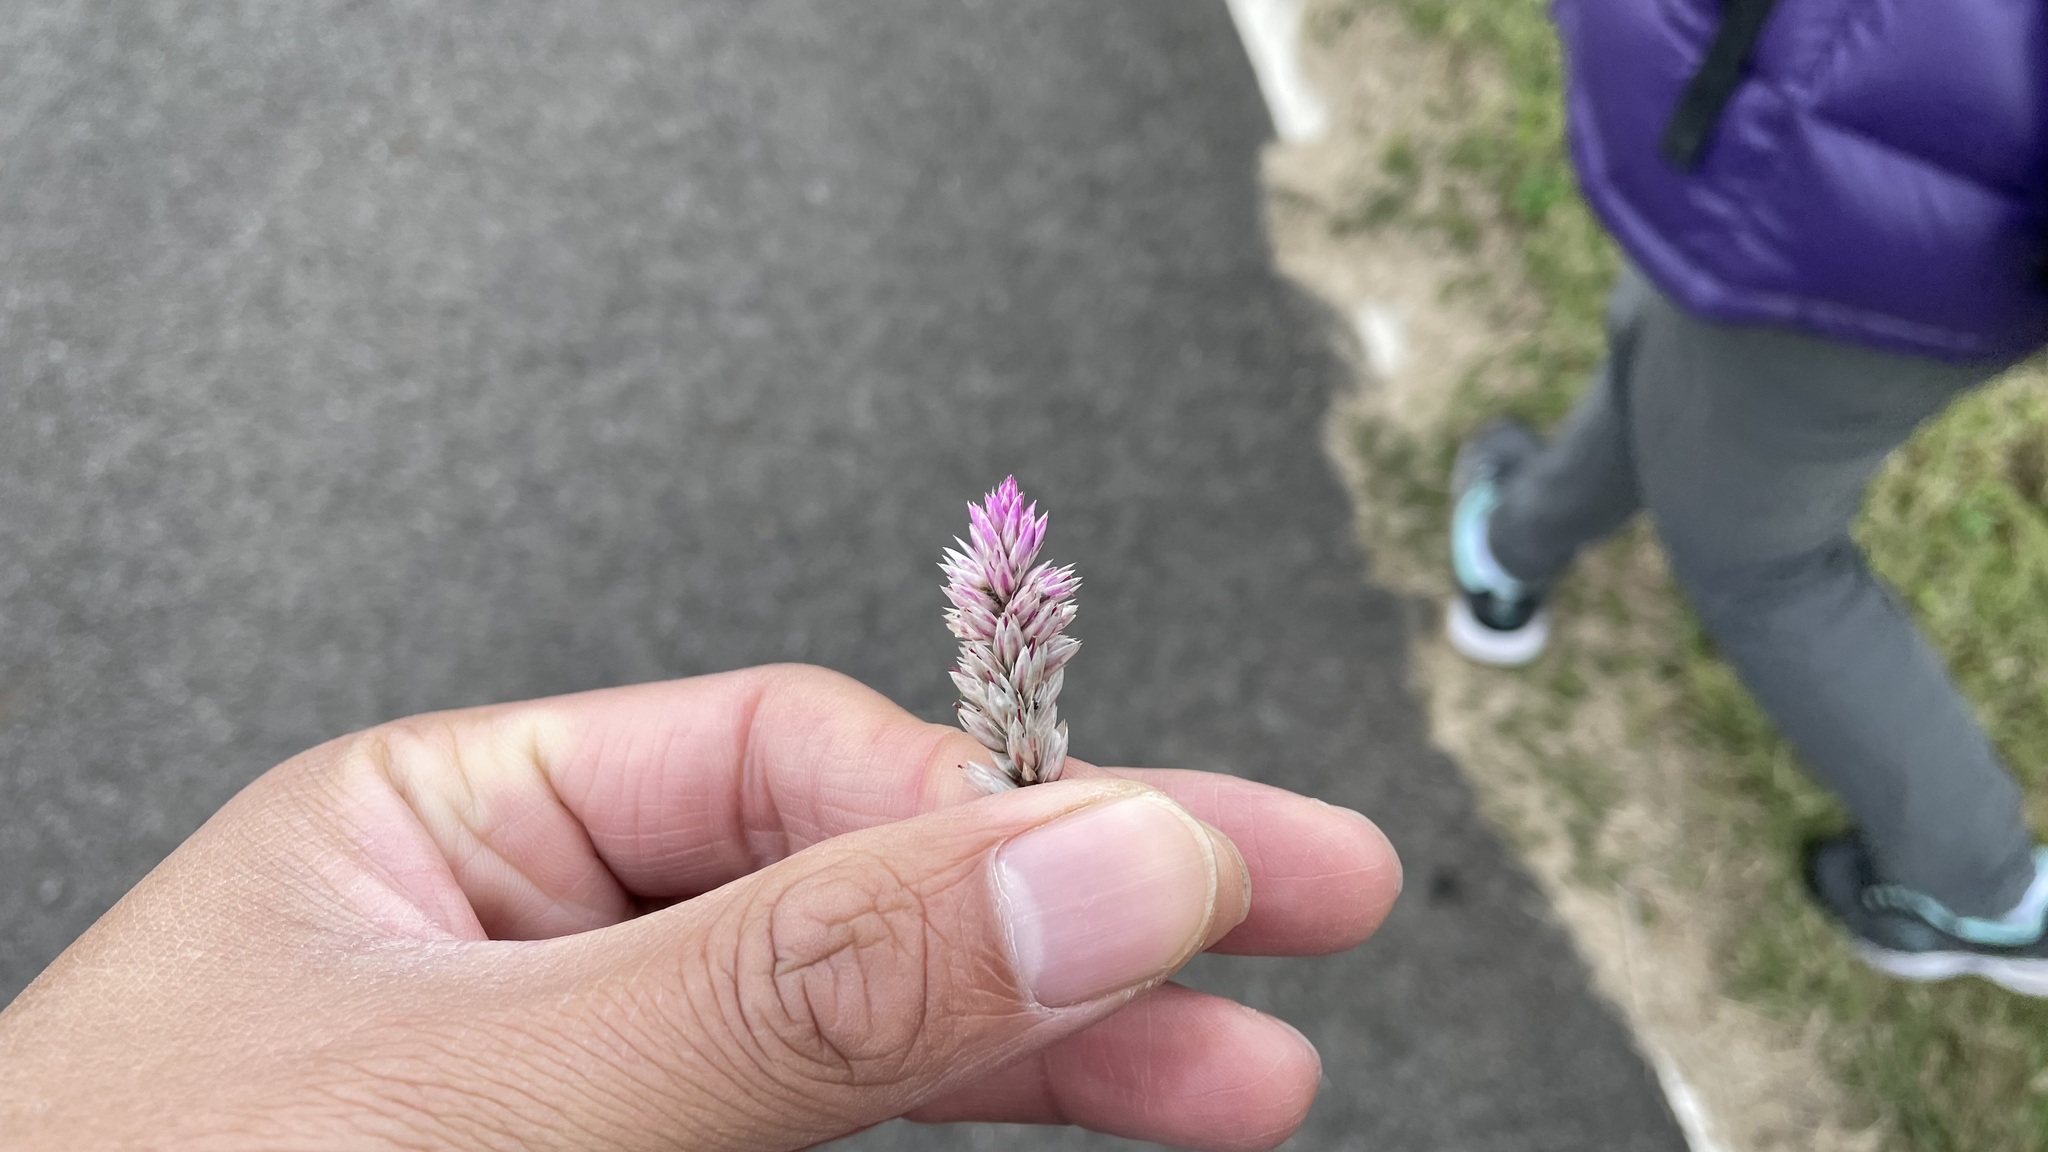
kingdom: Plantae
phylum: Tracheophyta
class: Magnoliopsida
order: Caryophyllales
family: Amaranthaceae
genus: Celosia
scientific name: Celosia argentea
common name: Feather cockscomb
